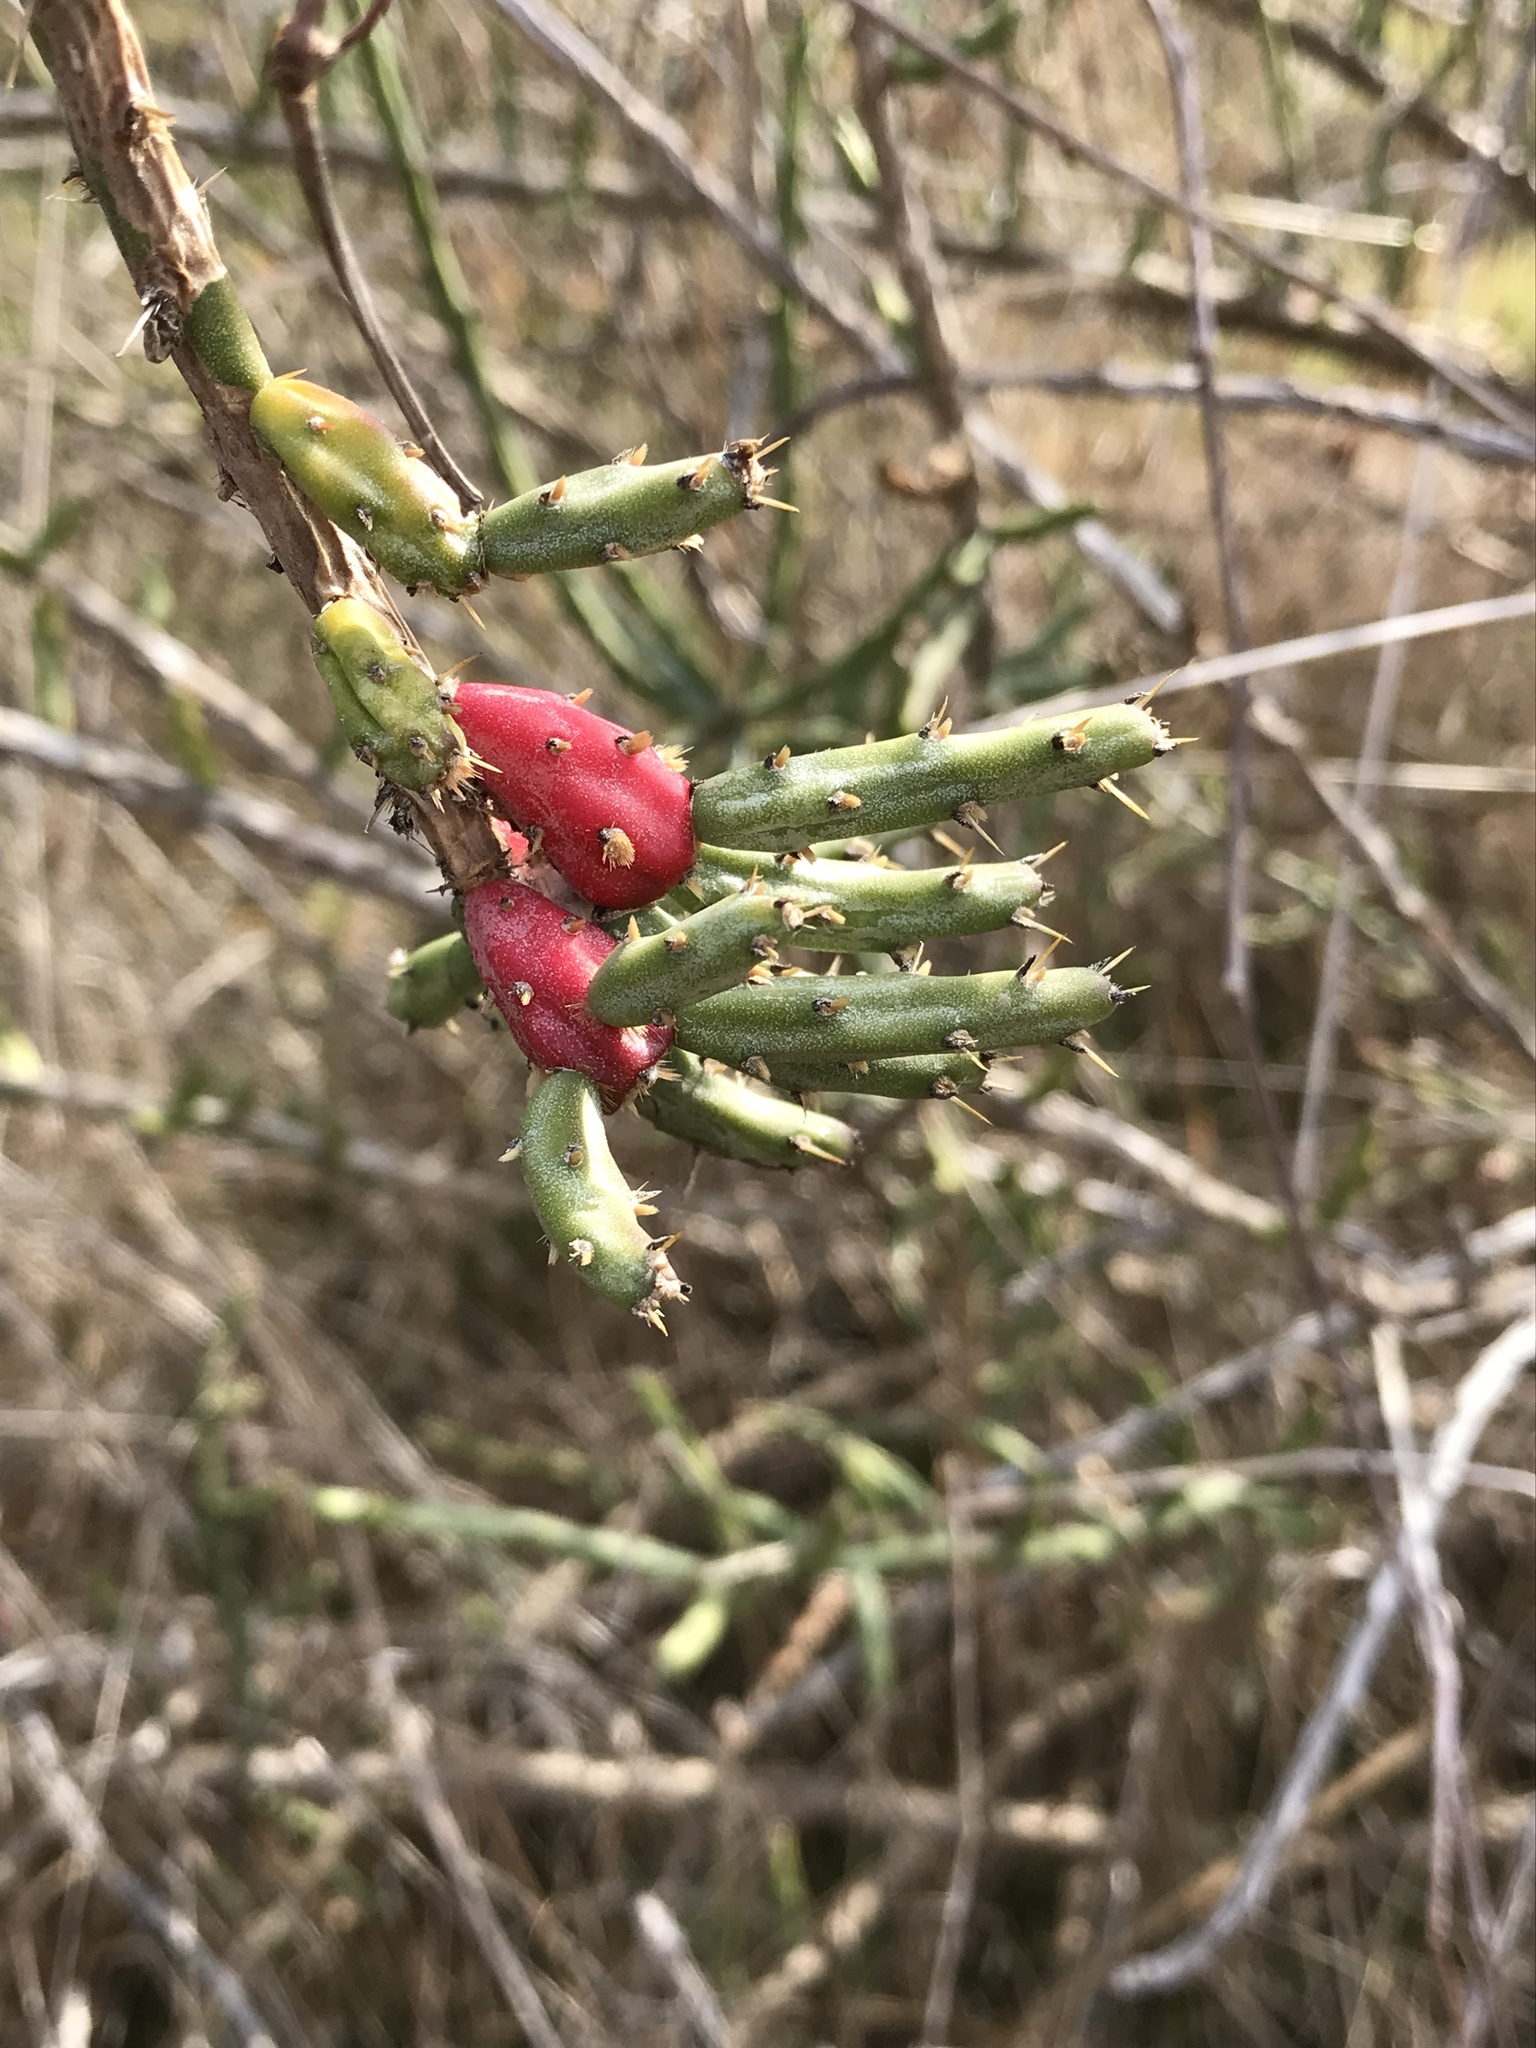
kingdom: Plantae
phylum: Tracheophyta
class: Magnoliopsida
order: Caryophyllales
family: Cactaceae
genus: Cylindropuntia
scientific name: Cylindropuntia leptocaulis
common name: Christmas cactus
